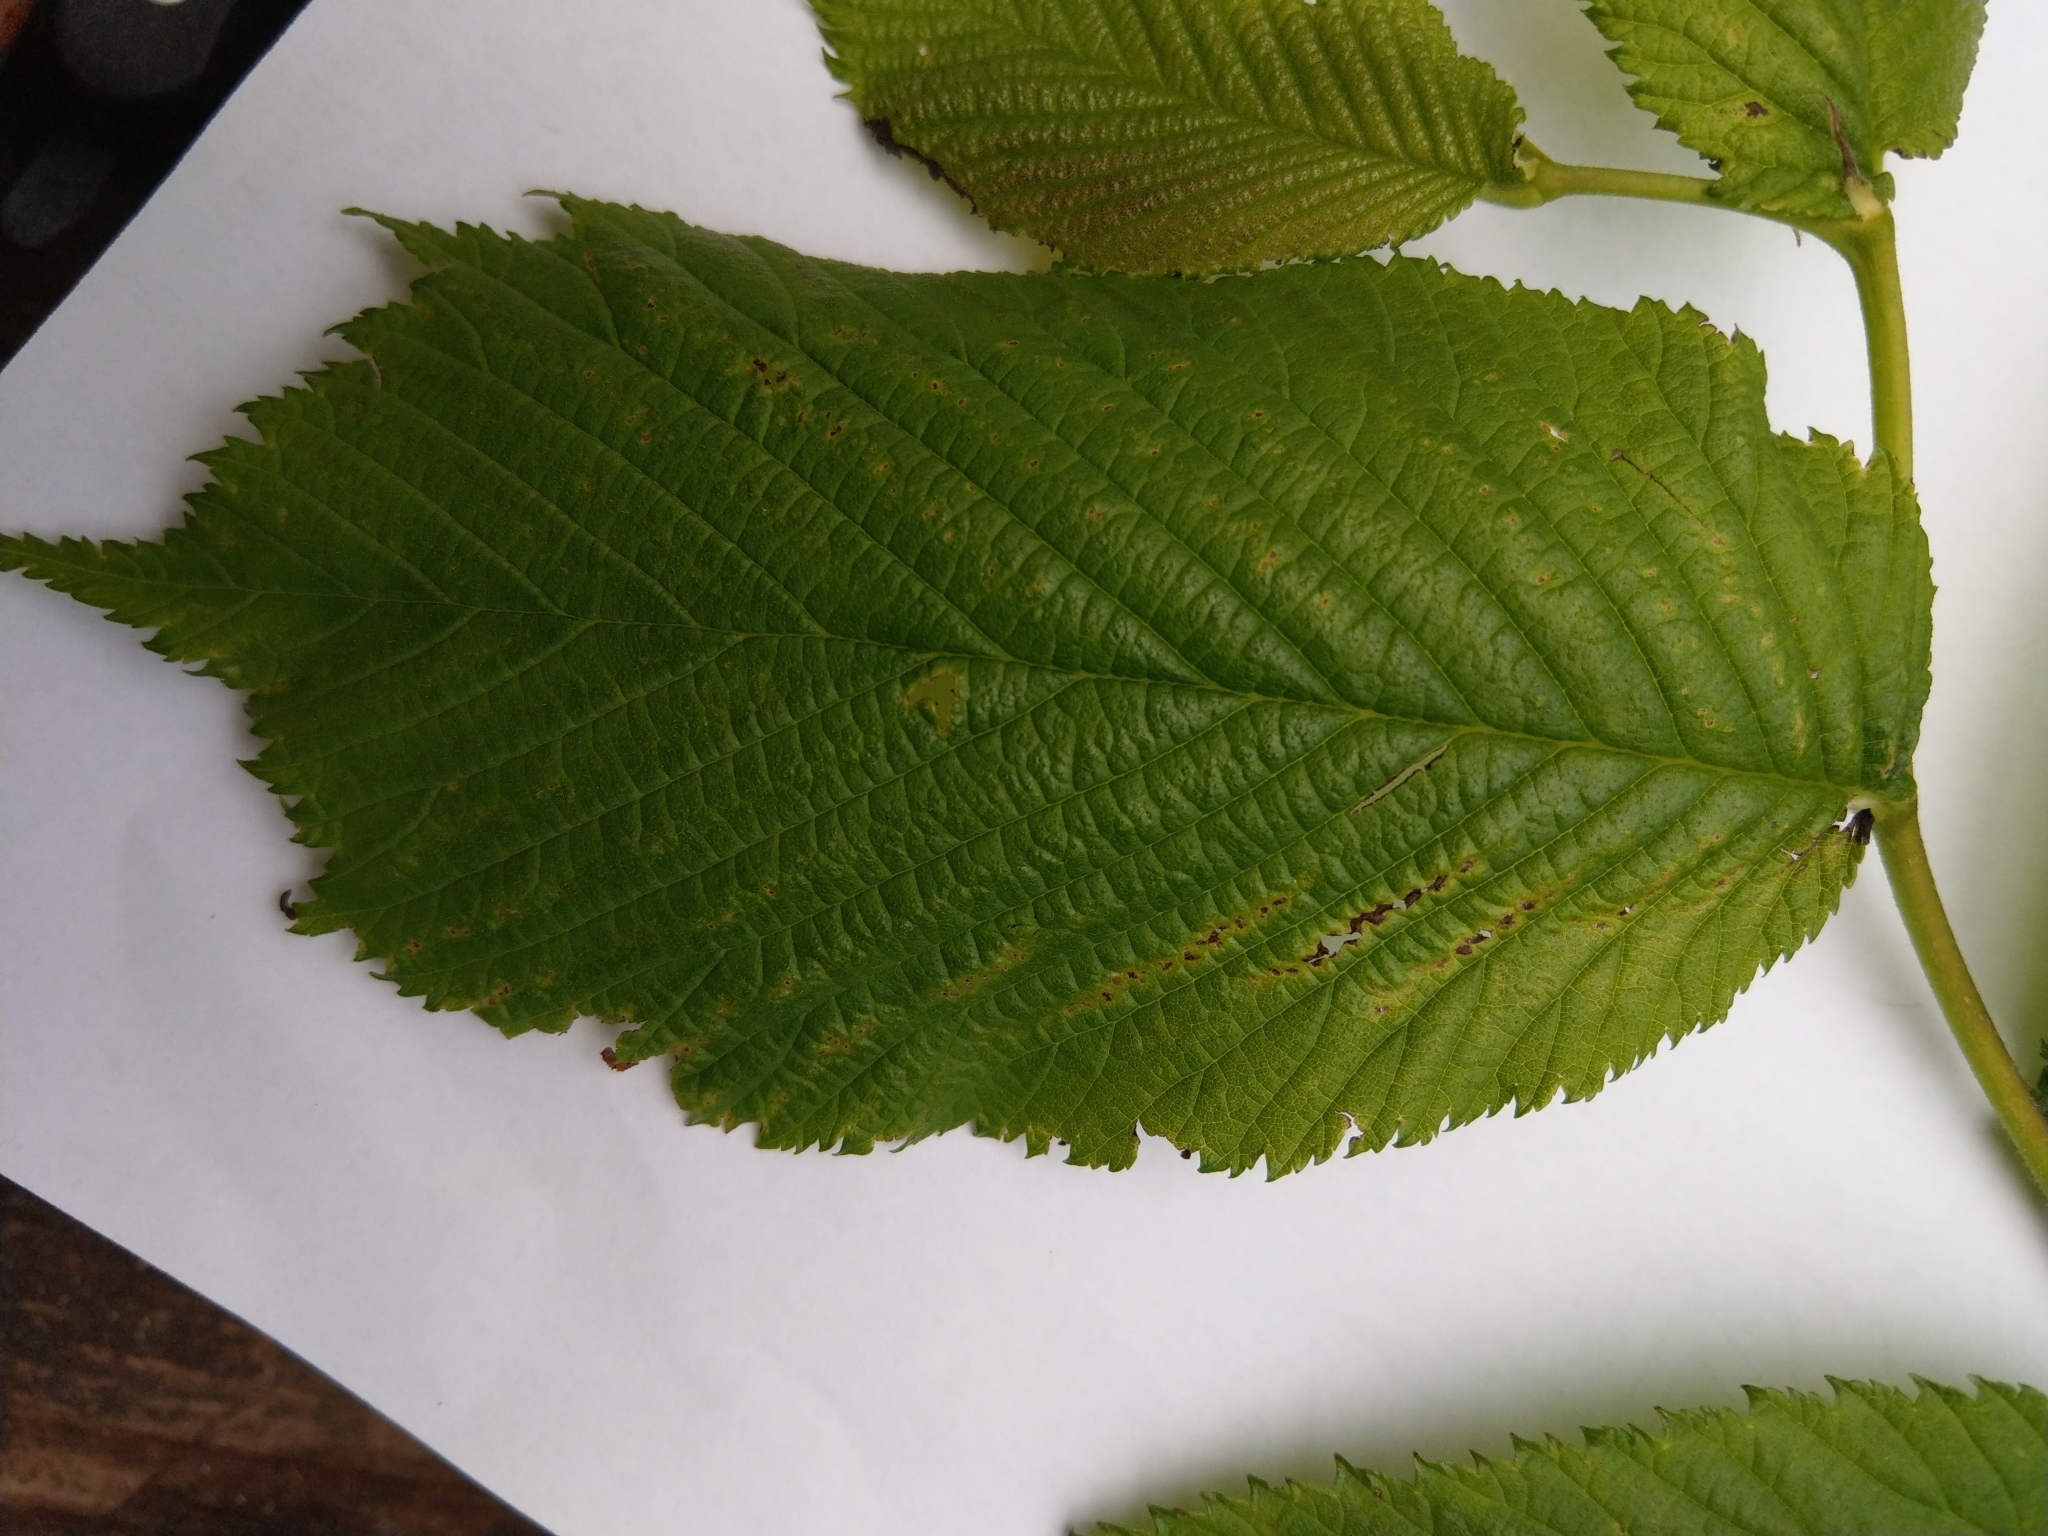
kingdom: Plantae
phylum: Tracheophyta
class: Magnoliopsida
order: Rosales
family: Ulmaceae
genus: Ulmus
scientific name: Ulmus glabra
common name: Wych elm
